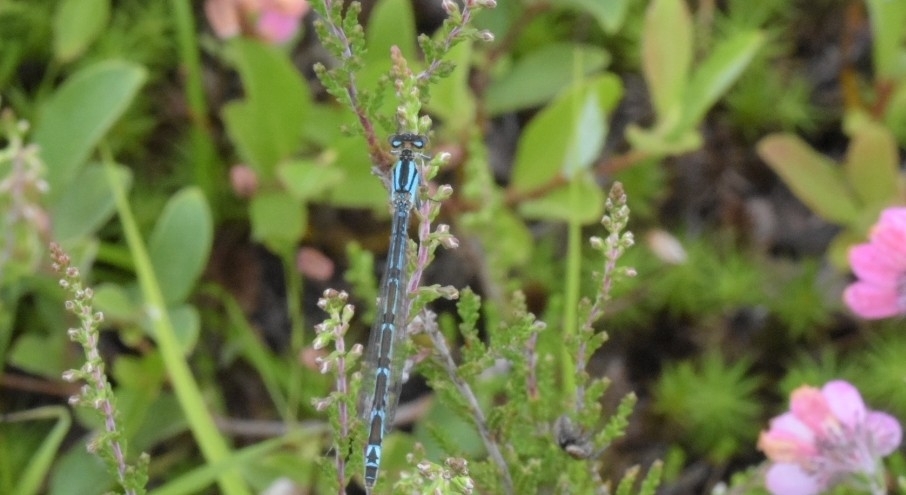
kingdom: Animalia
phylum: Arthropoda
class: Insecta
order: Odonata
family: Coenagrionidae
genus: Enallagma
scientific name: Enallagma cyathigerum
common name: Common blue damselfly
